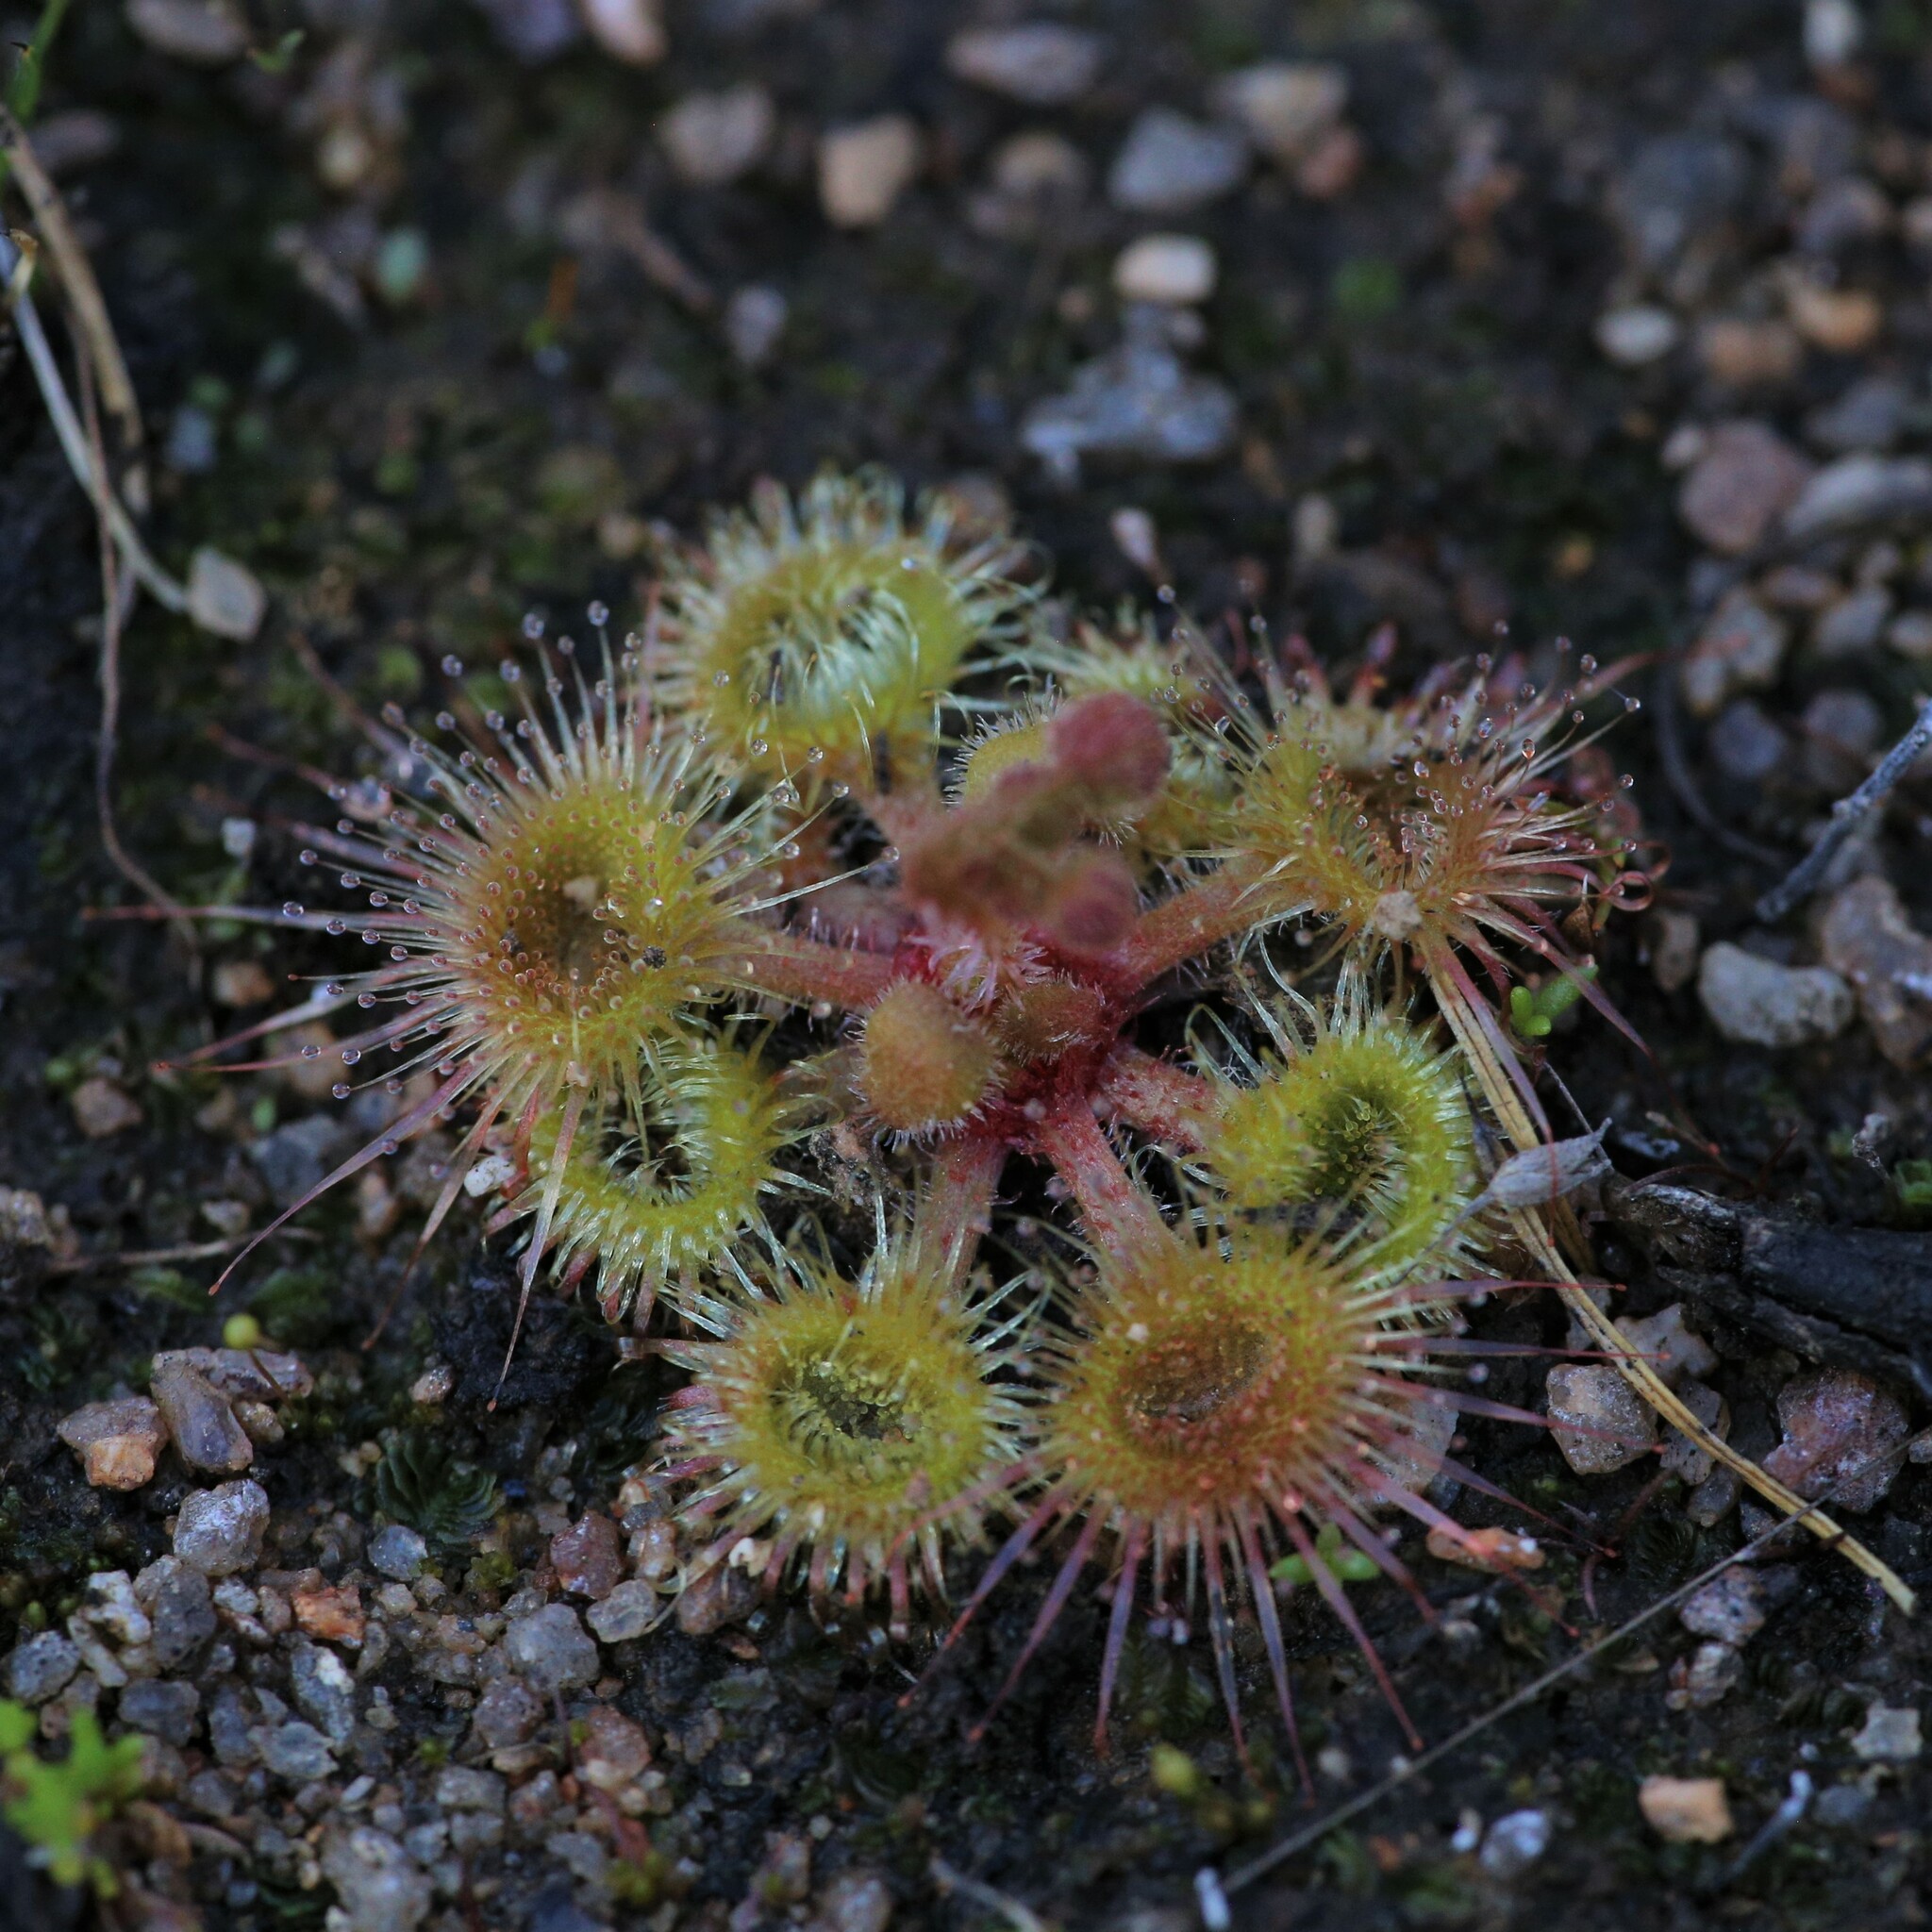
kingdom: Plantae
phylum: Tracheophyta
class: Magnoliopsida
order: Caryophyllales
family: Droseraceae
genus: Drosera
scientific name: Drosera glanduligera
